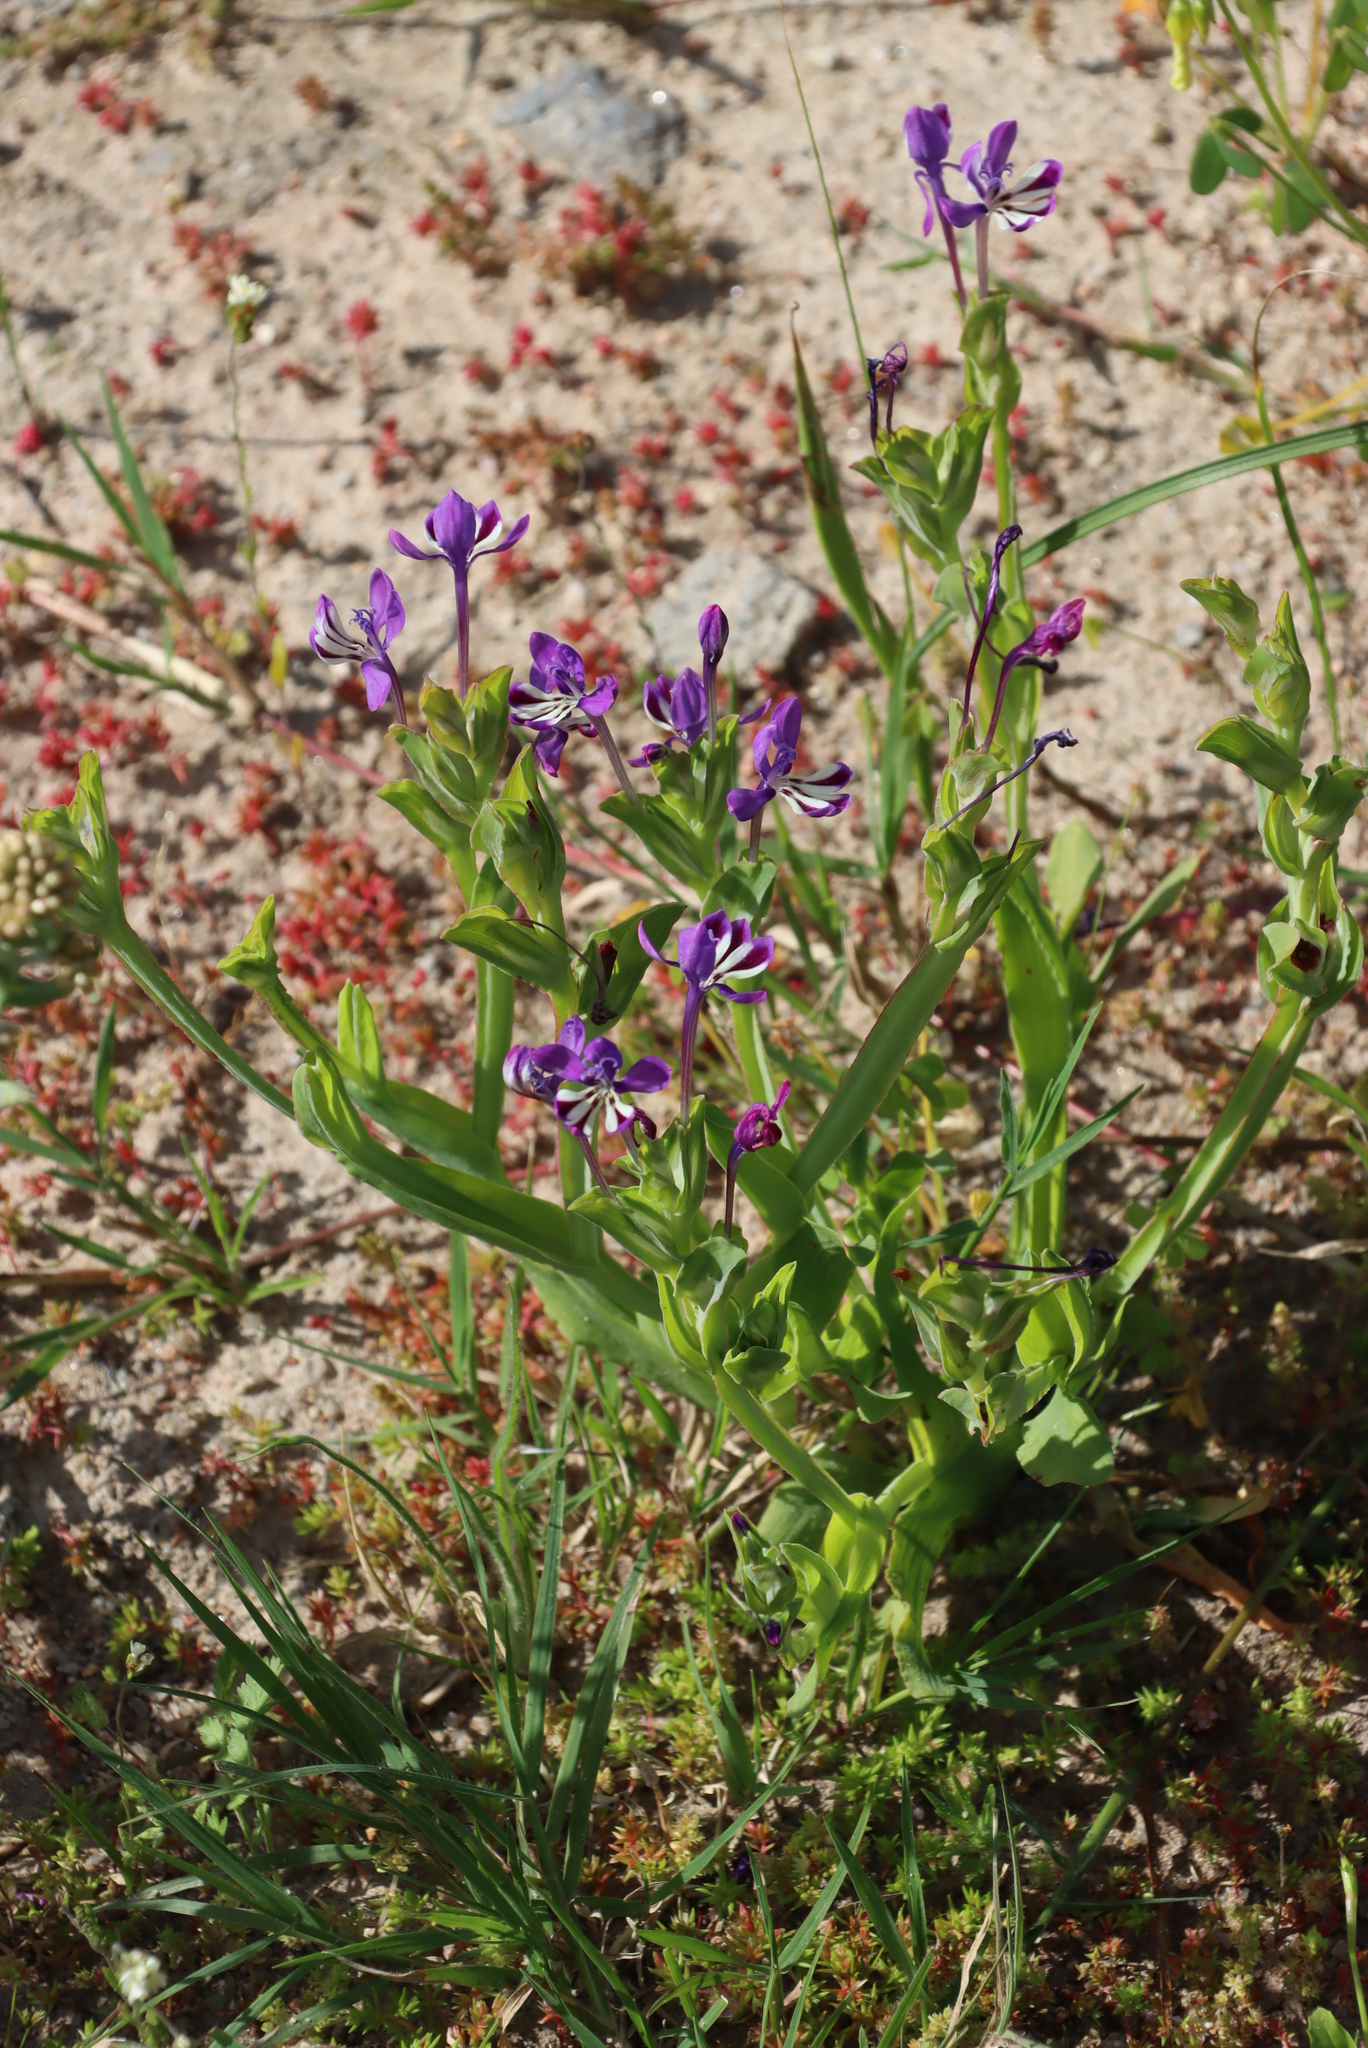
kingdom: Plantae
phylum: Tracheophyta
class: Liliopsida
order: Asparagales
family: Iridaceae
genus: Lapeirousia
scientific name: Lapeirousia jacquinii
